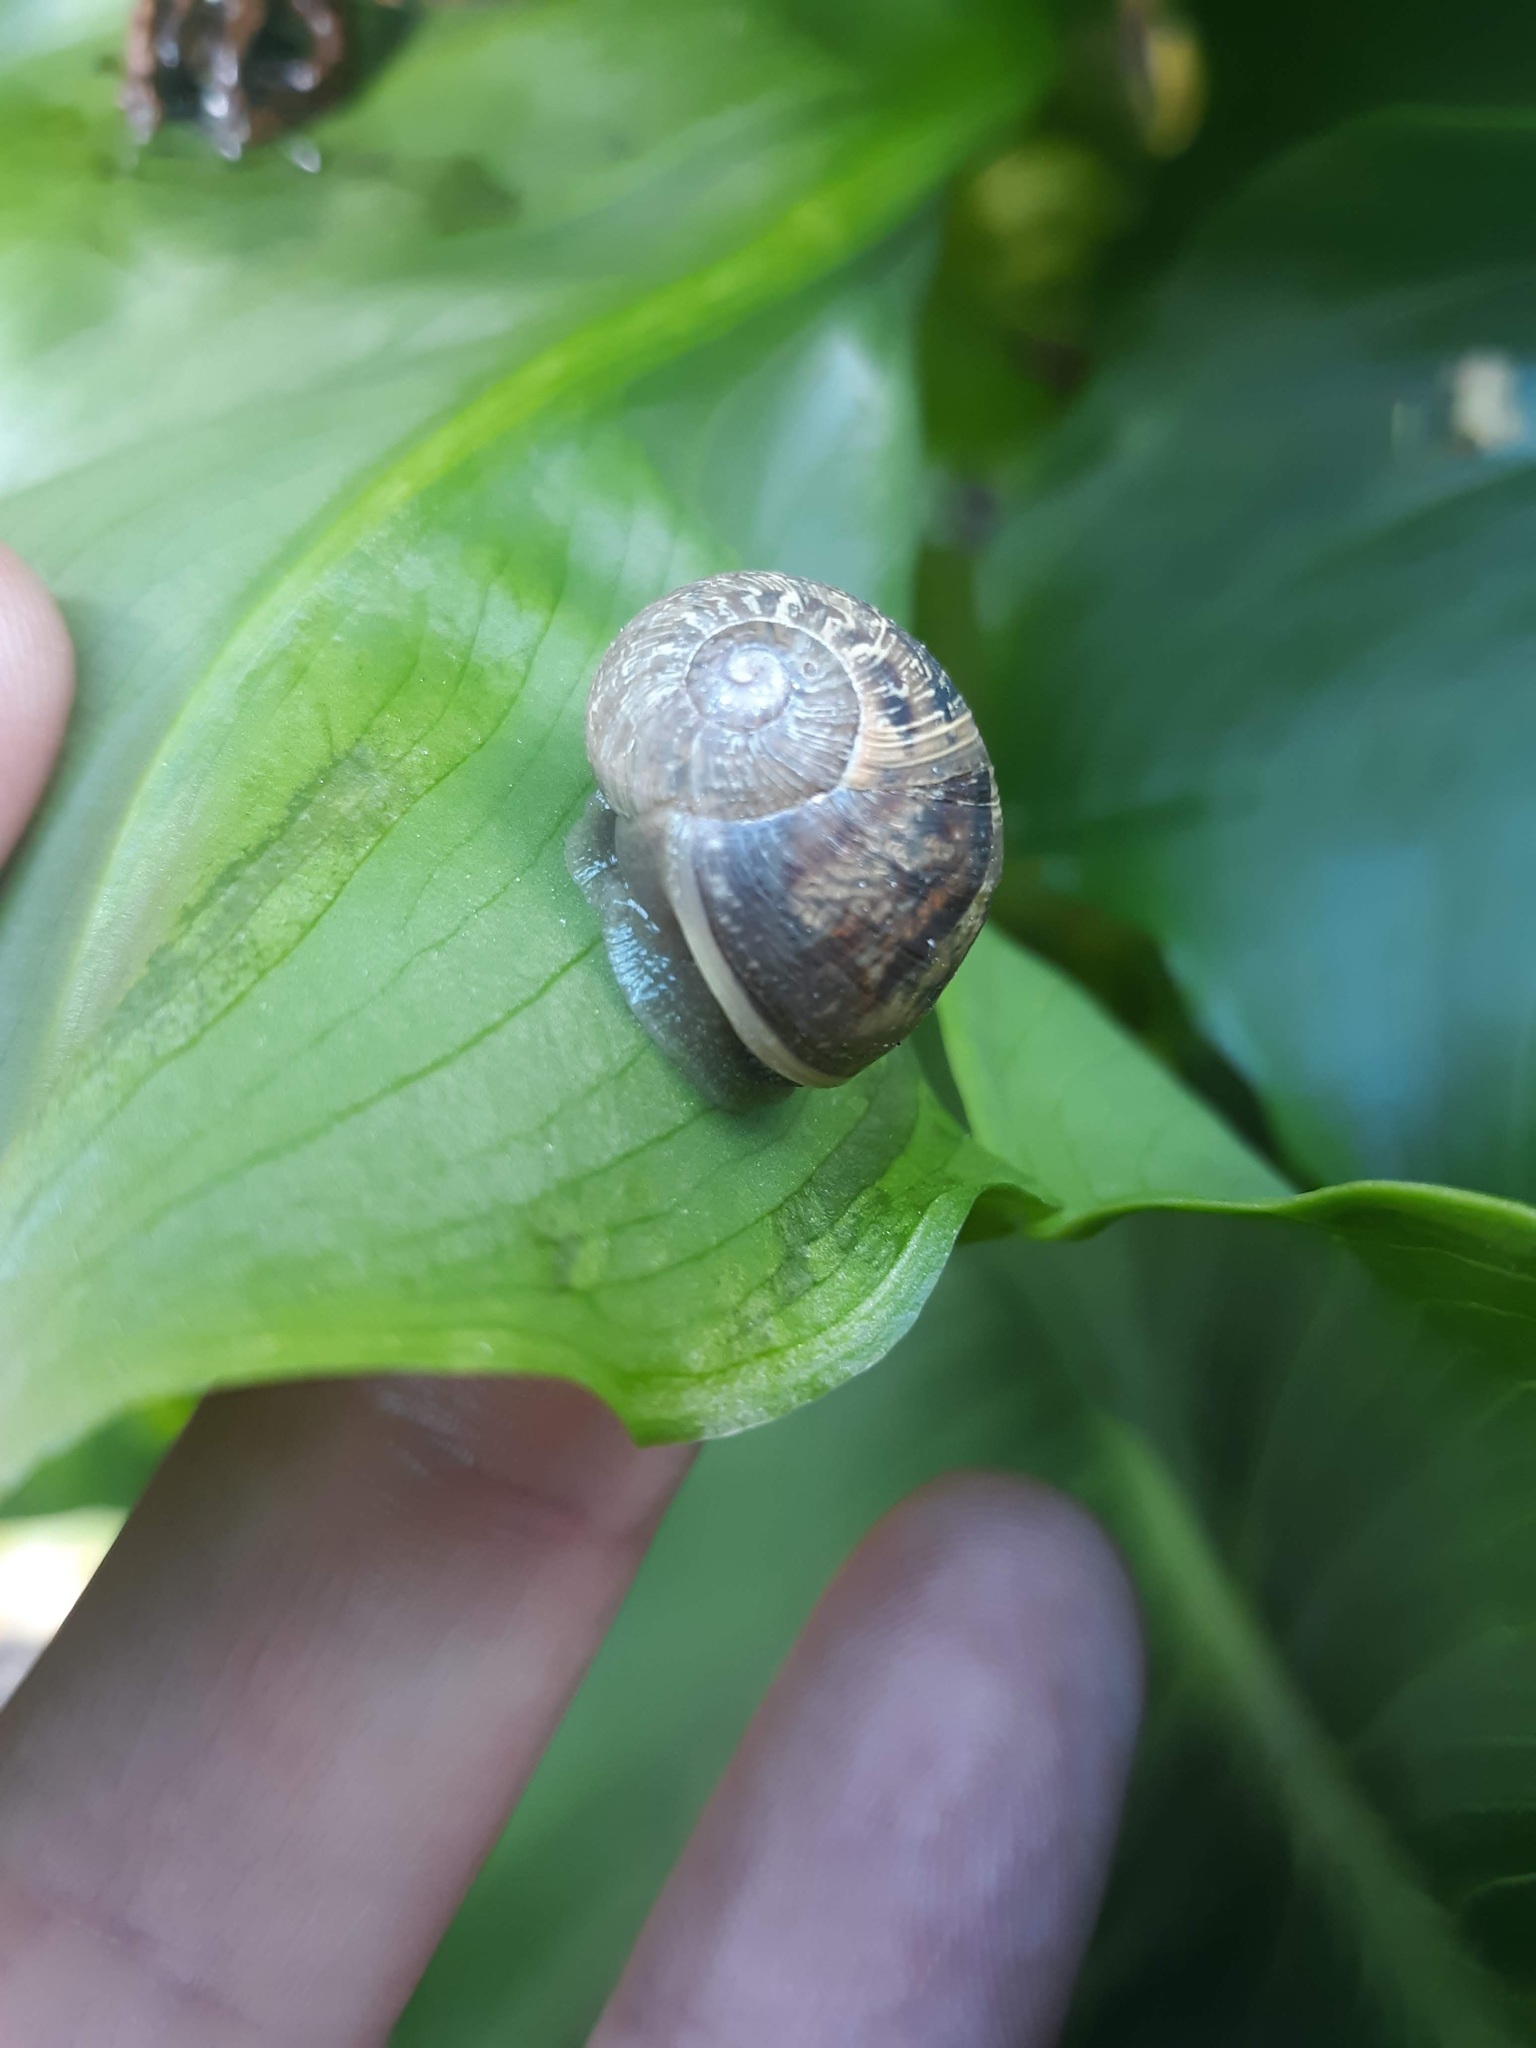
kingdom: Animalia
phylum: Mollusca
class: Gastropoda
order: Stylommatophora
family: Helicidae
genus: Cornu
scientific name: Cornu aspersum
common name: Brown garden snail
